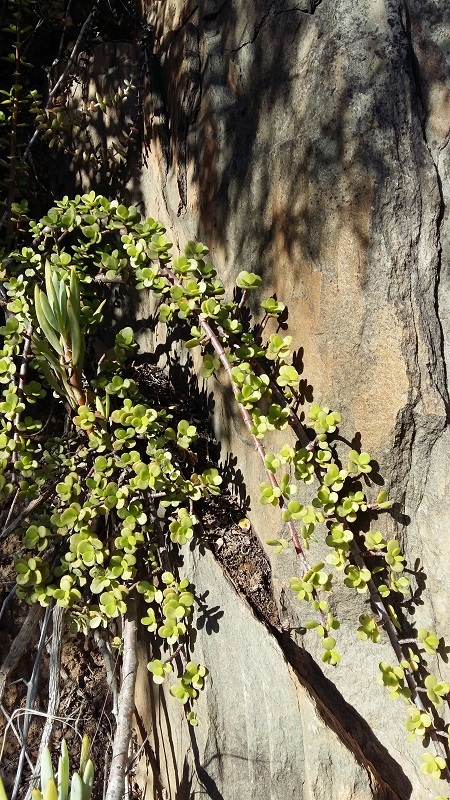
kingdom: Plantae
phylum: Tracheophyta
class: Magnoliopsida
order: Caryophyllales
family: Didiereaceae
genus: Portulacaria
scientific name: Portulacaria afra
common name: Elephant-bush
